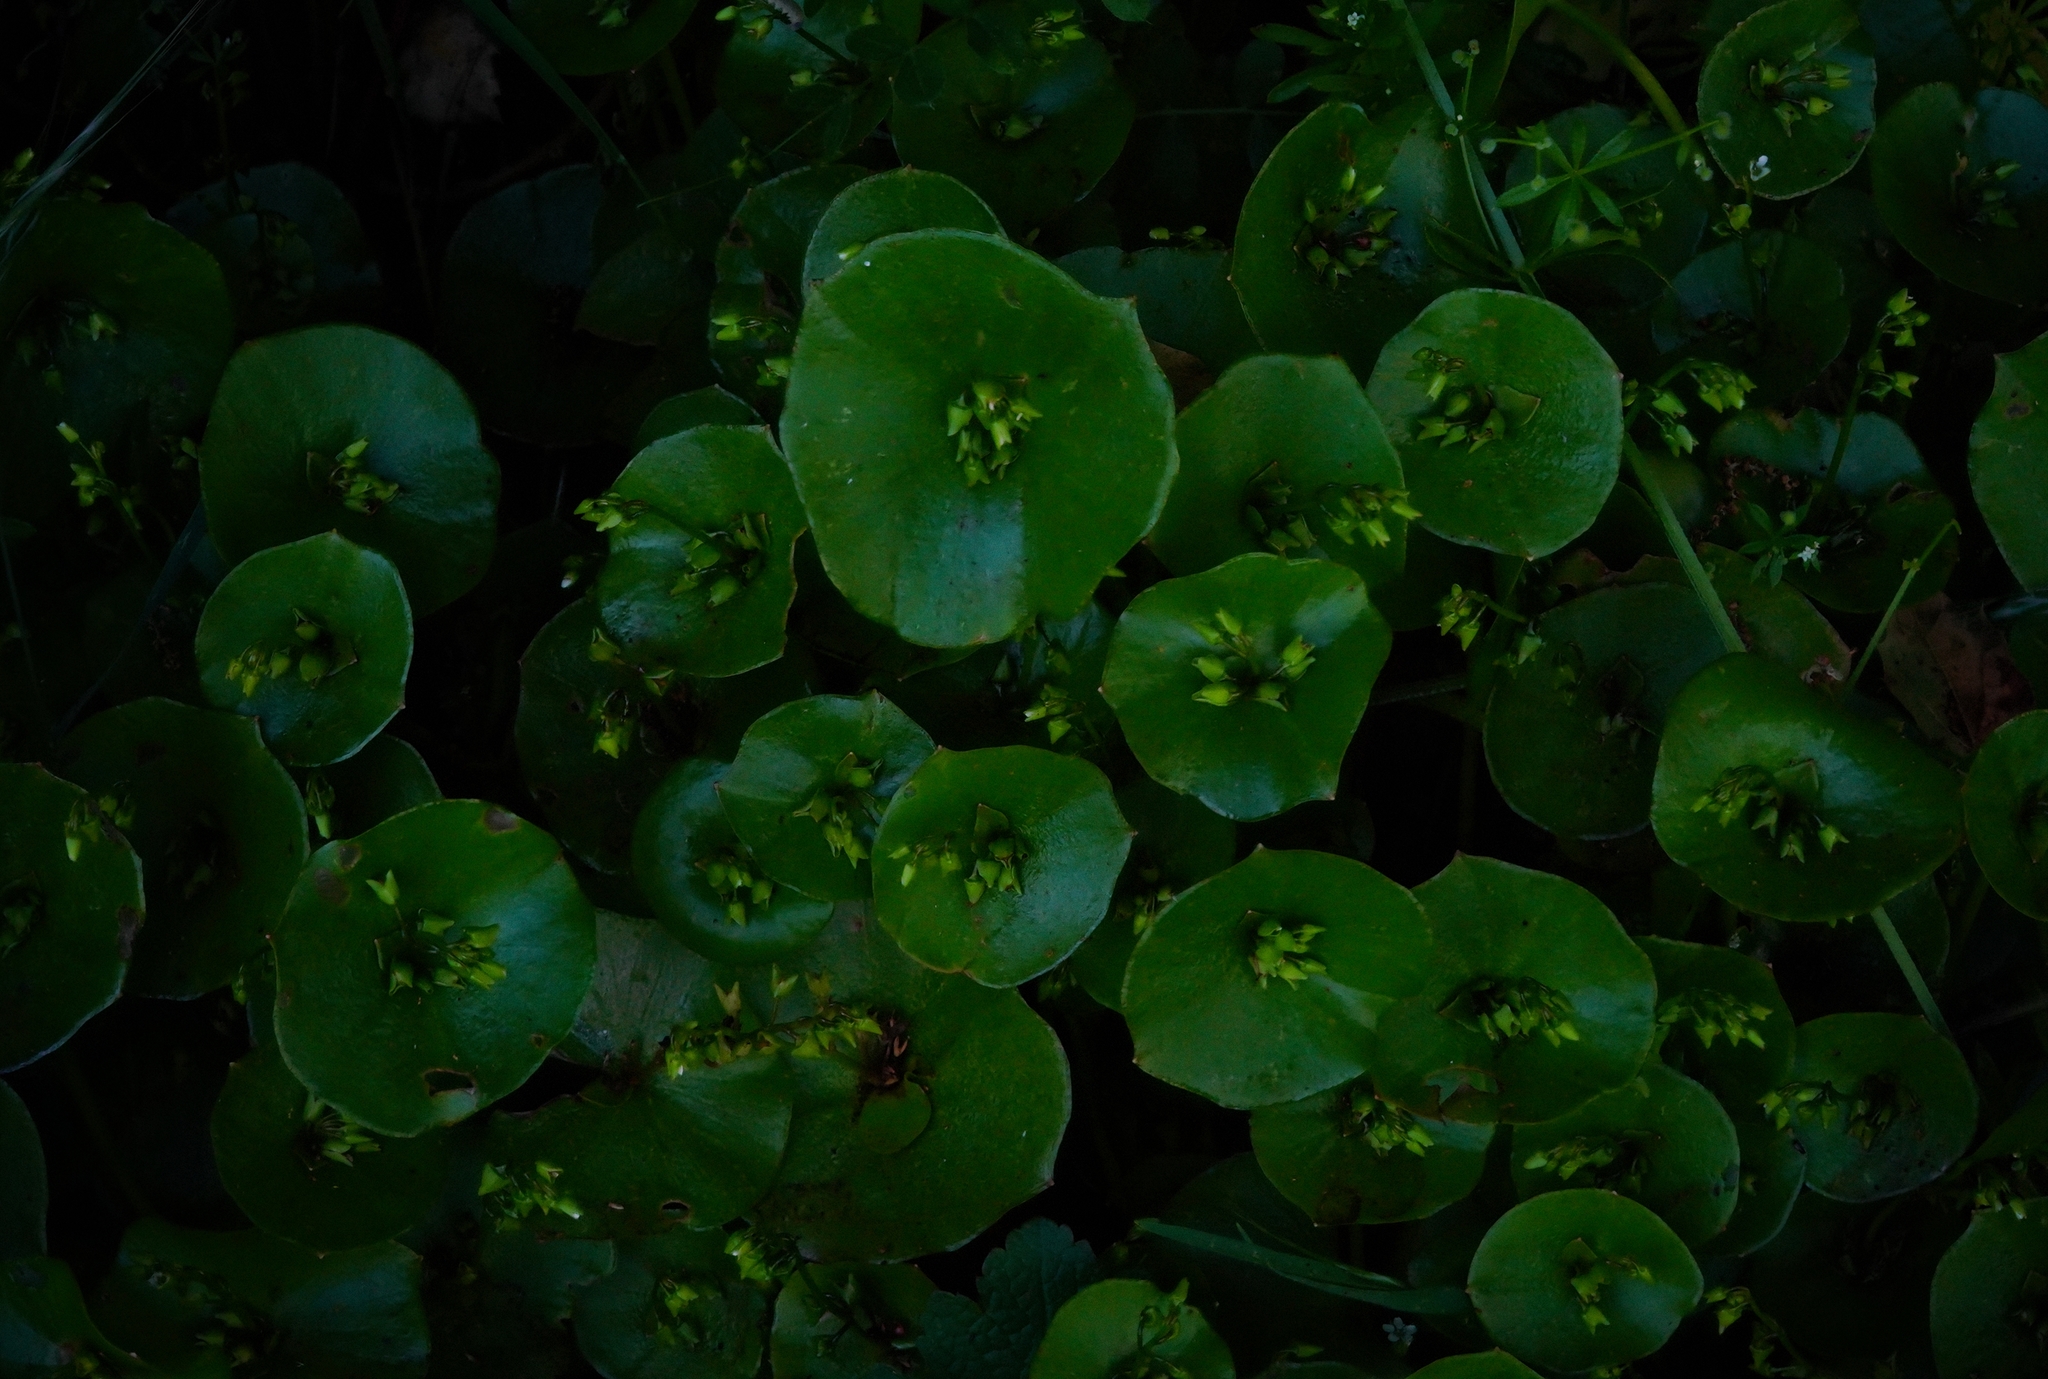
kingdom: Plantae
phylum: Tracheophyta
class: Magnoliopsida
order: Caryophyllales
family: Montiaceae
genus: Claytonia
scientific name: Claytonia perfoliata
